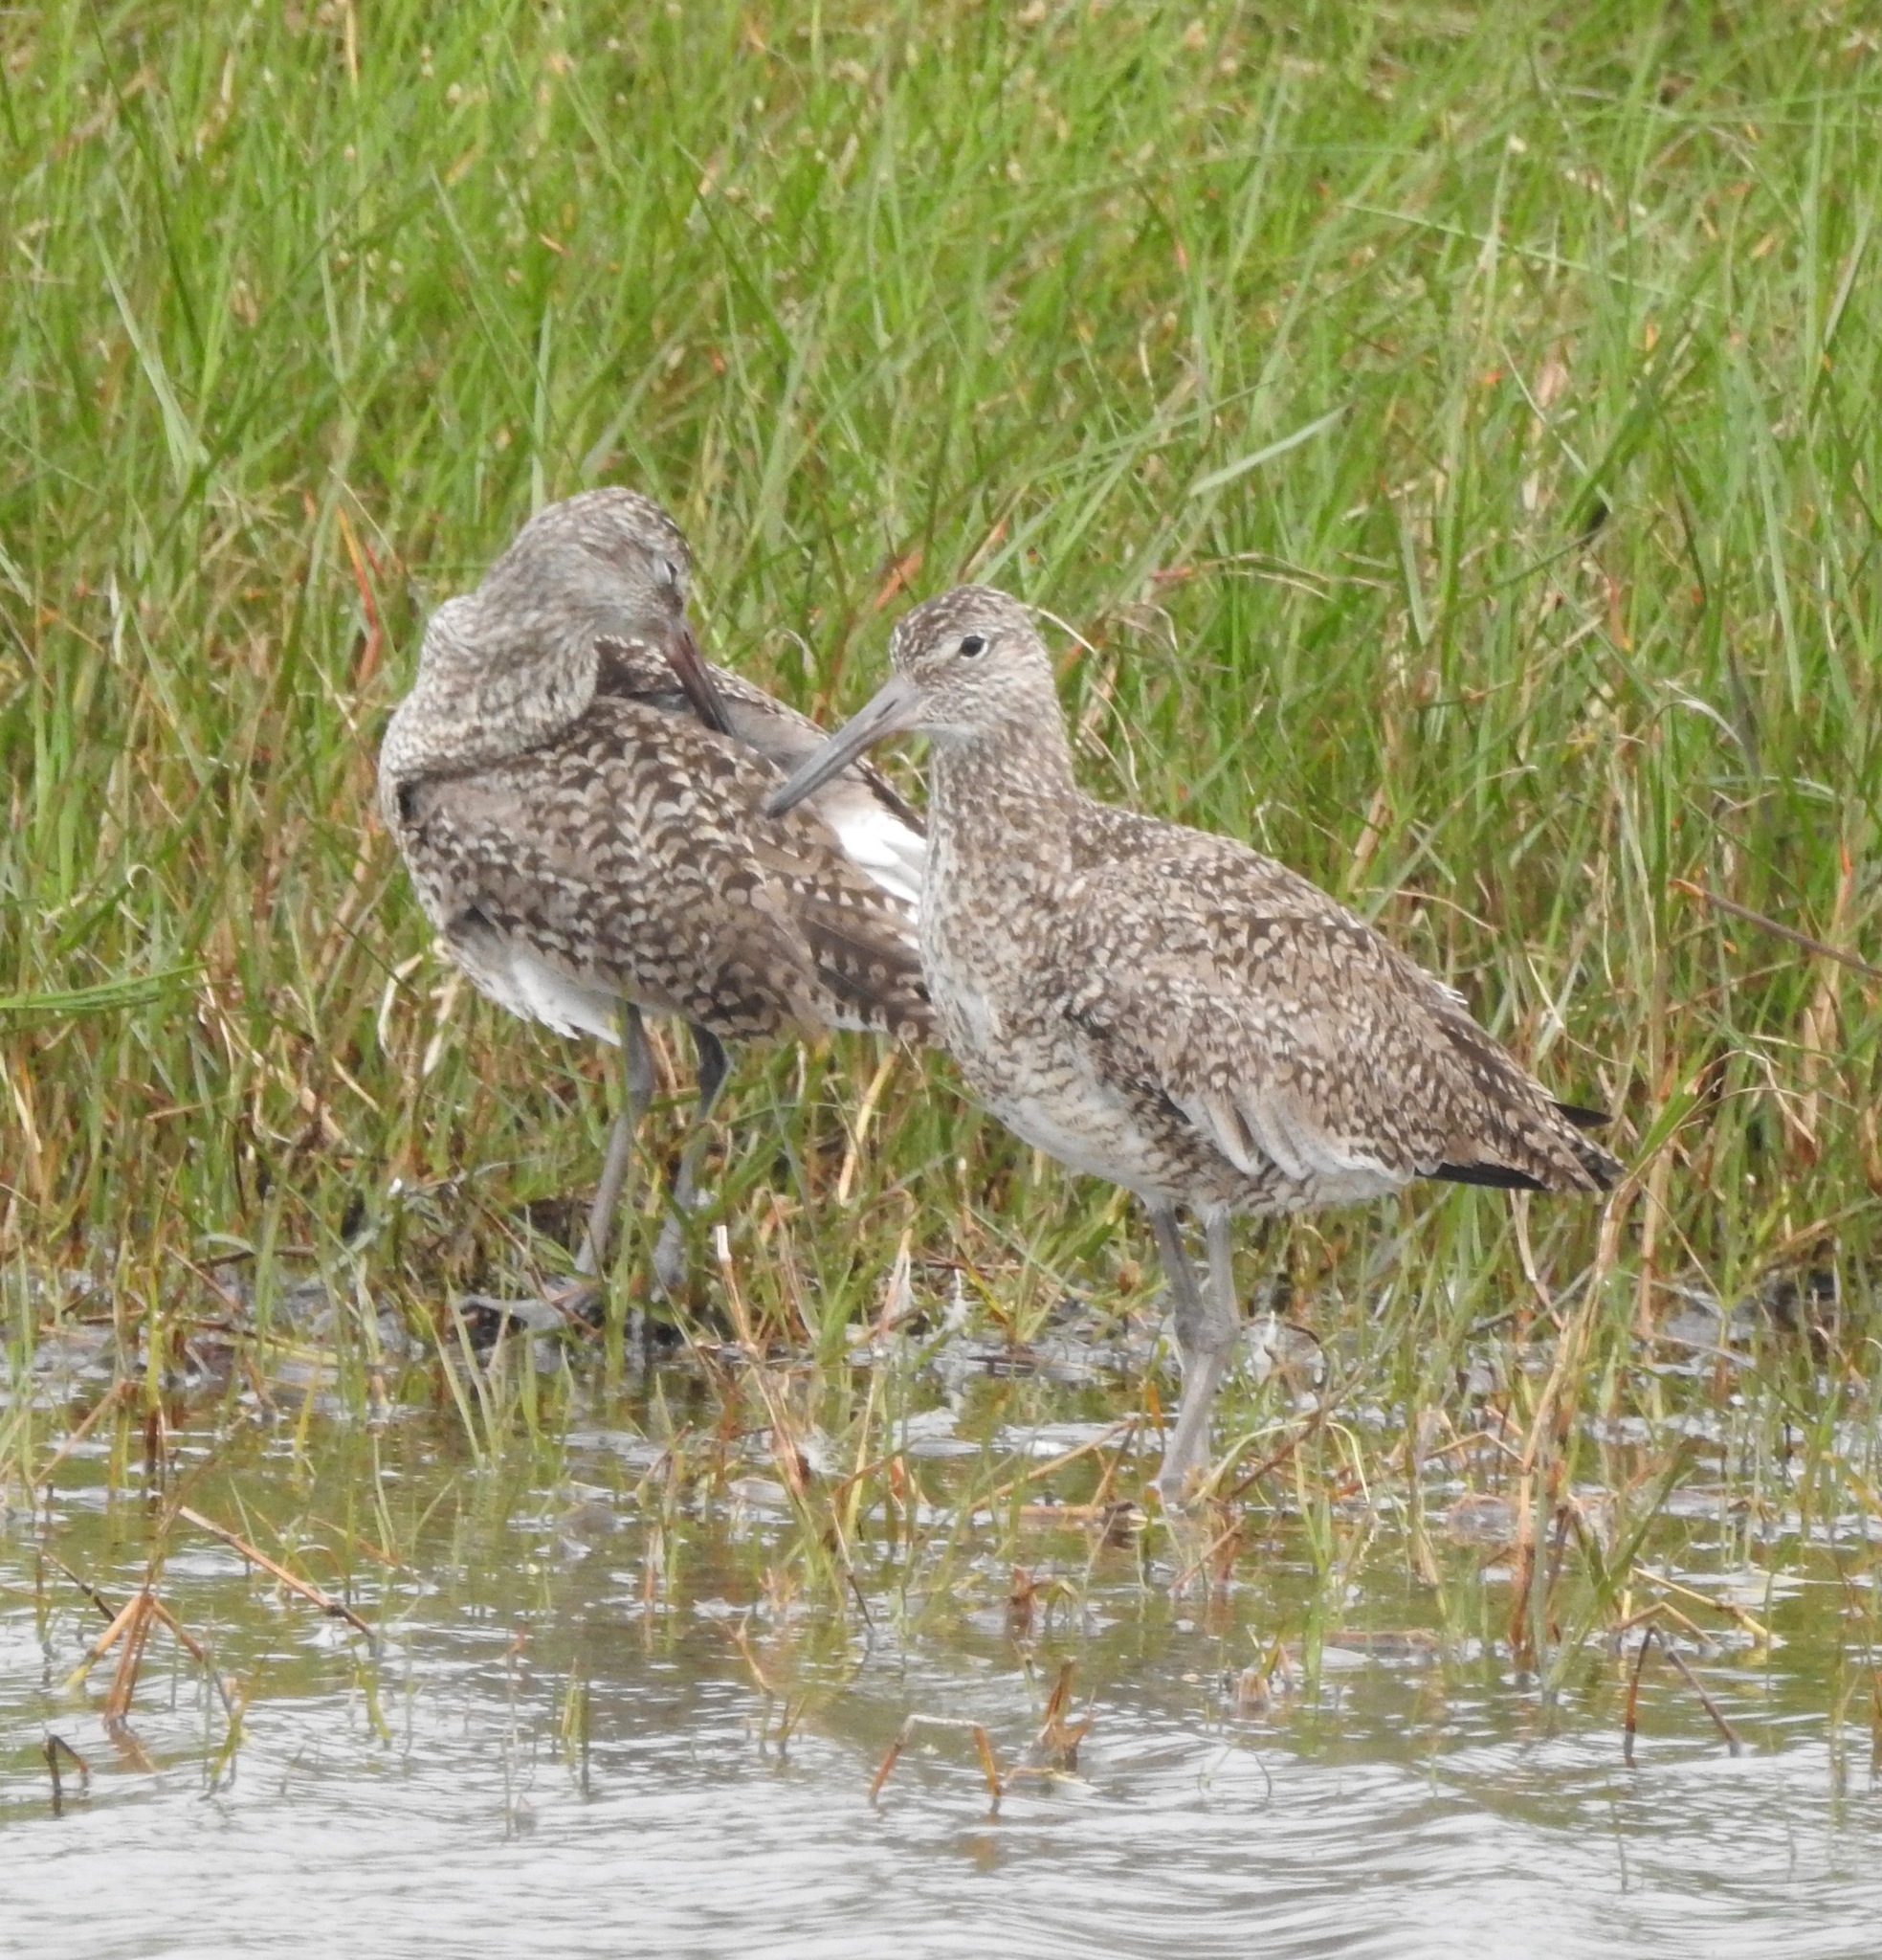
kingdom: Animalia
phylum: Chordata
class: Aves
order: Charadriiformes
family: Scolopacidae
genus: Tringa
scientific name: Tringa semipalmata
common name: Willet
